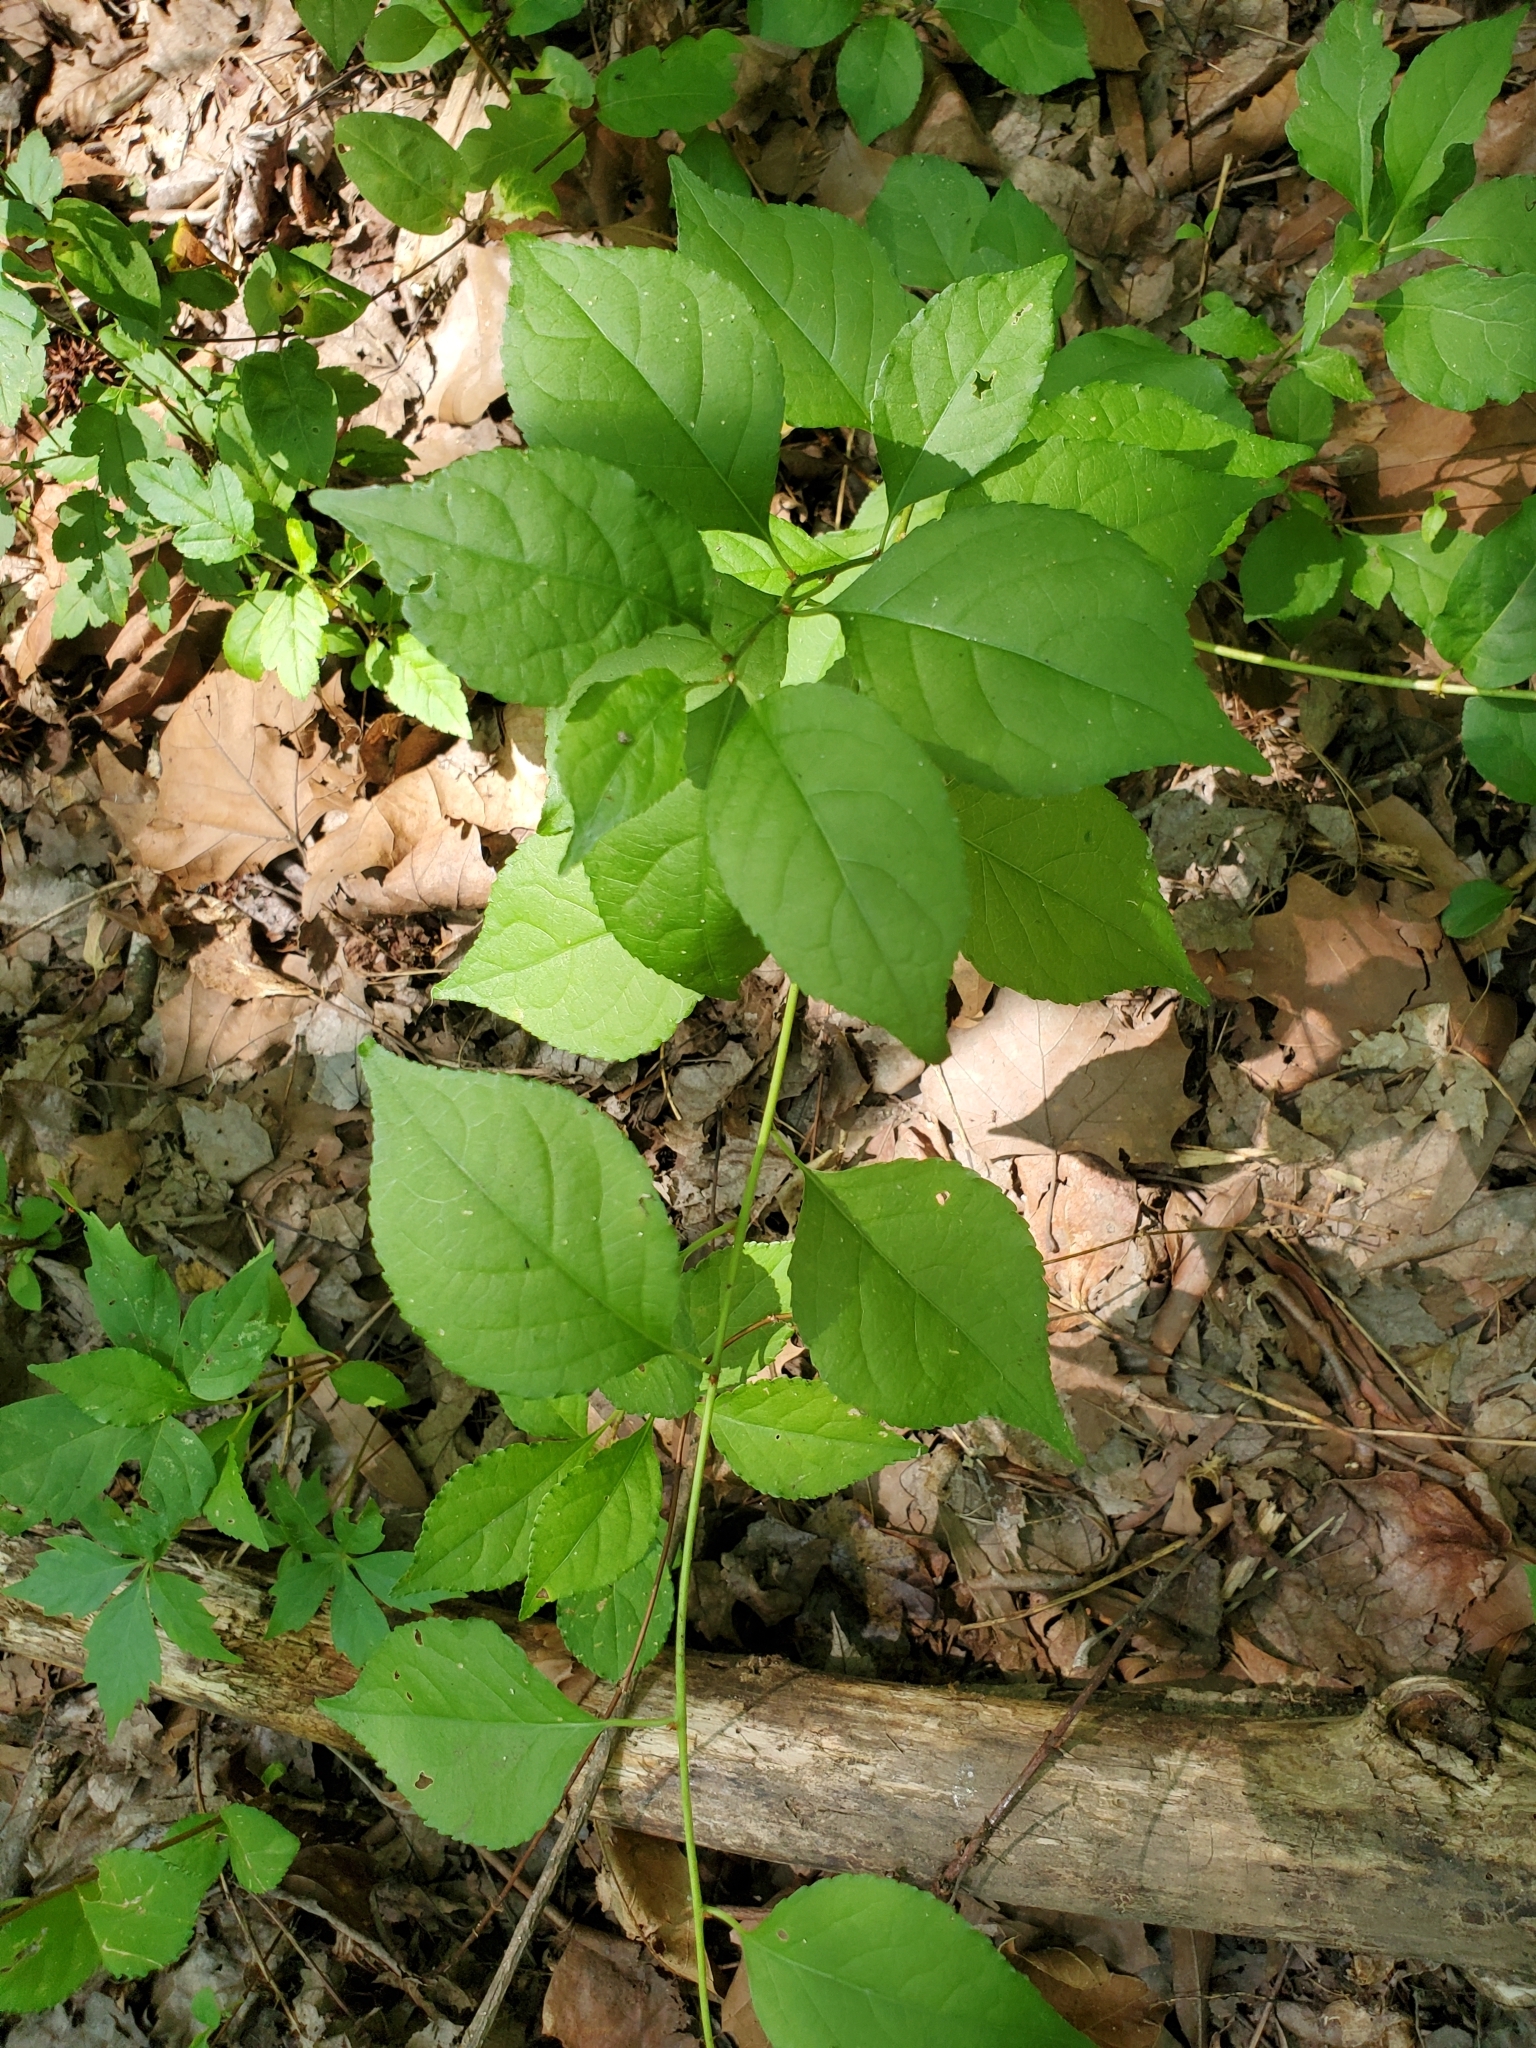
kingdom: Plantae
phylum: Tracheophyta
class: Magnoliopsida
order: Celastrales
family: Celastraceae
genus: Celastrus
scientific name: Celastrus orbiculatus
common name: Oriental bittersweet
